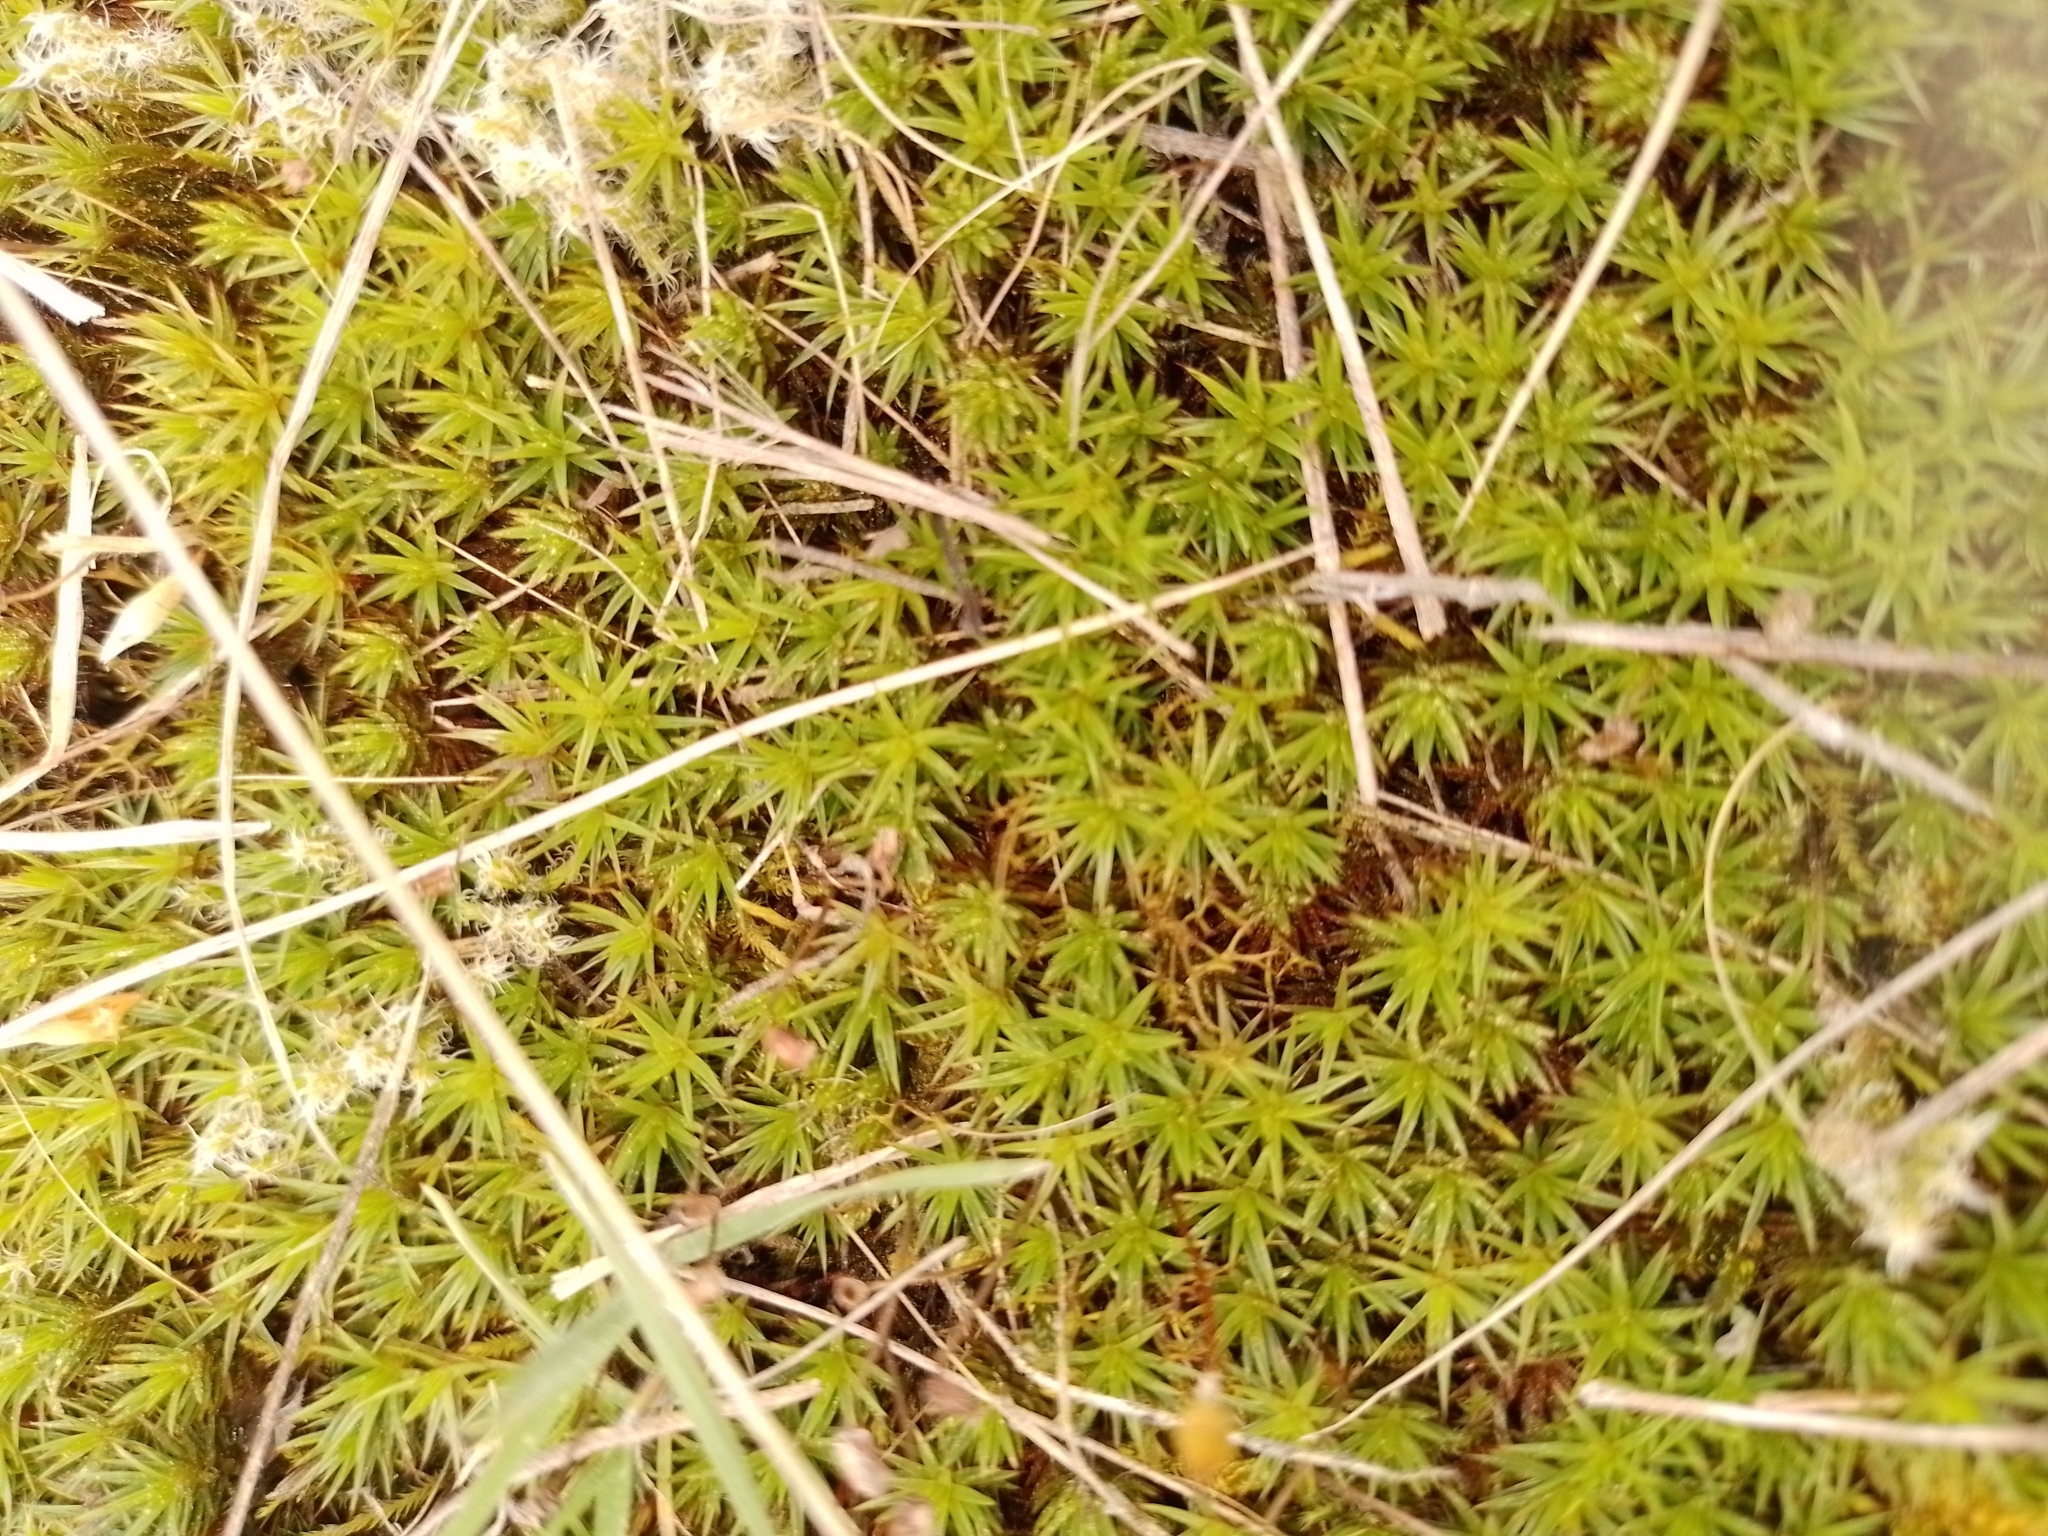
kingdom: Plantae
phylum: Bryophyta
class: Polytrichopsida
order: Polytrichales
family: Polytrichaceae
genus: Polytrichum
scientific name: Polytrichum juniperinum
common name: Juniper haircap moss
